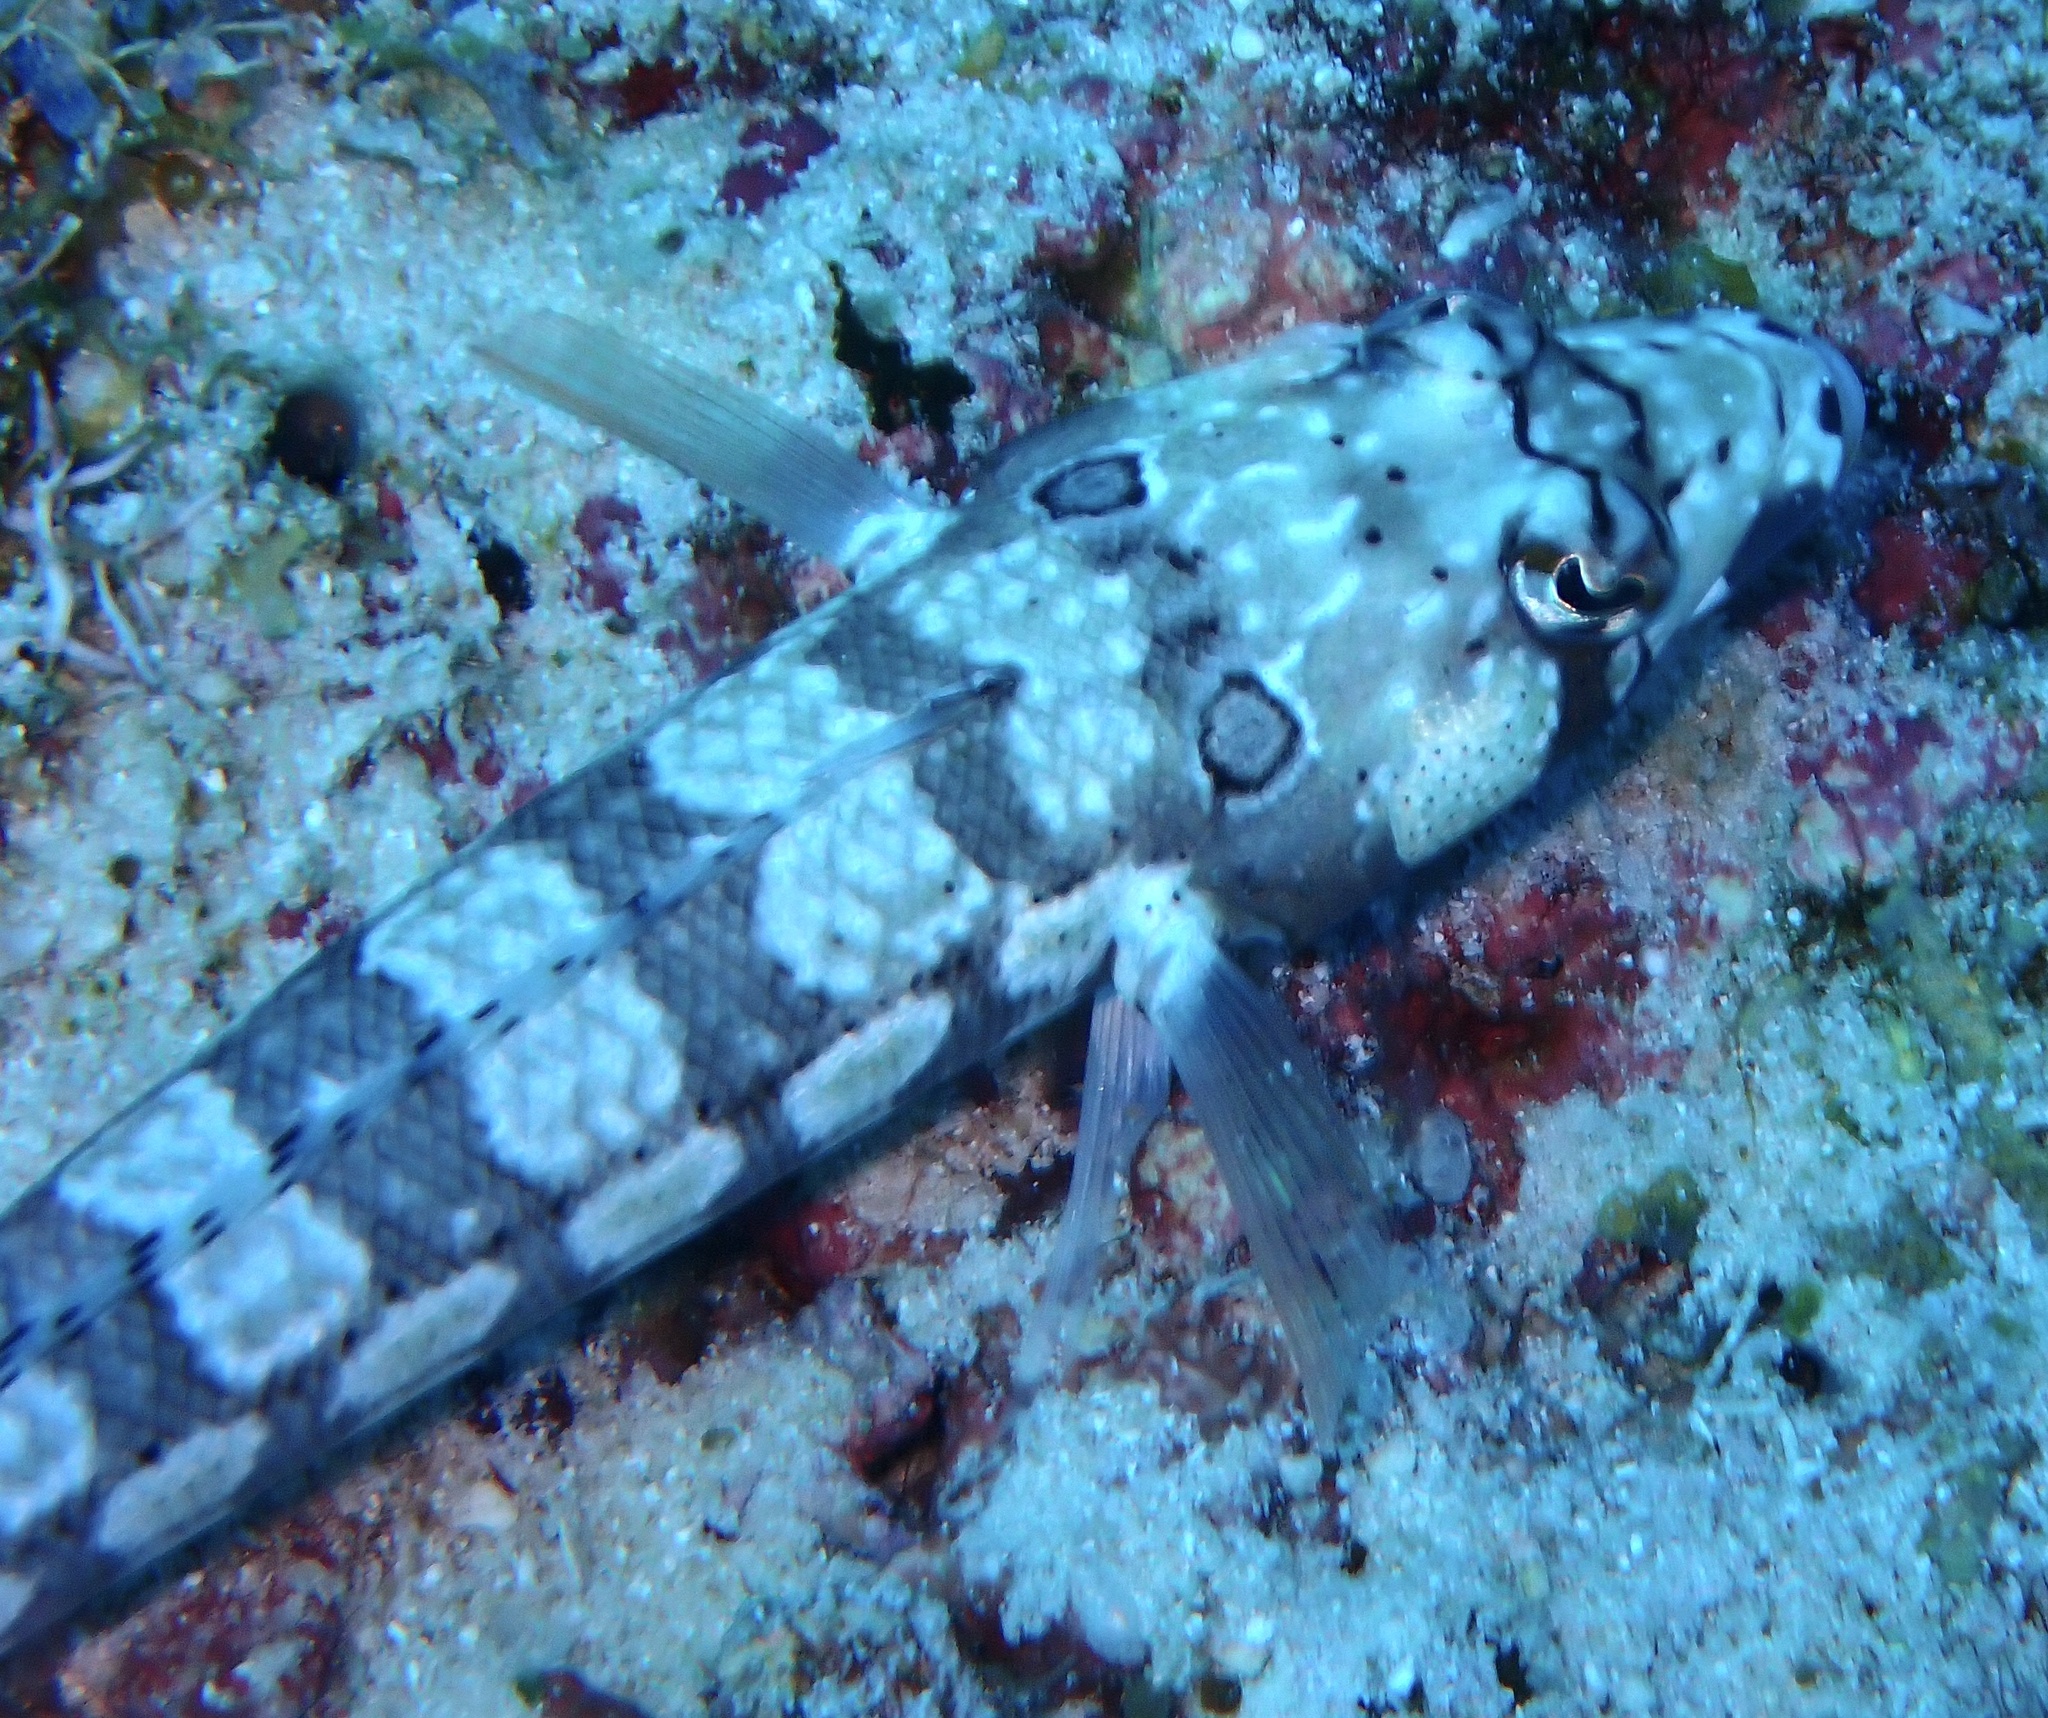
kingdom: Animalia
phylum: Chordata
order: Perciformes
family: Pinguipedidae
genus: Parapercis
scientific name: Parapercis tetracantha
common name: Black-banded grubfish
